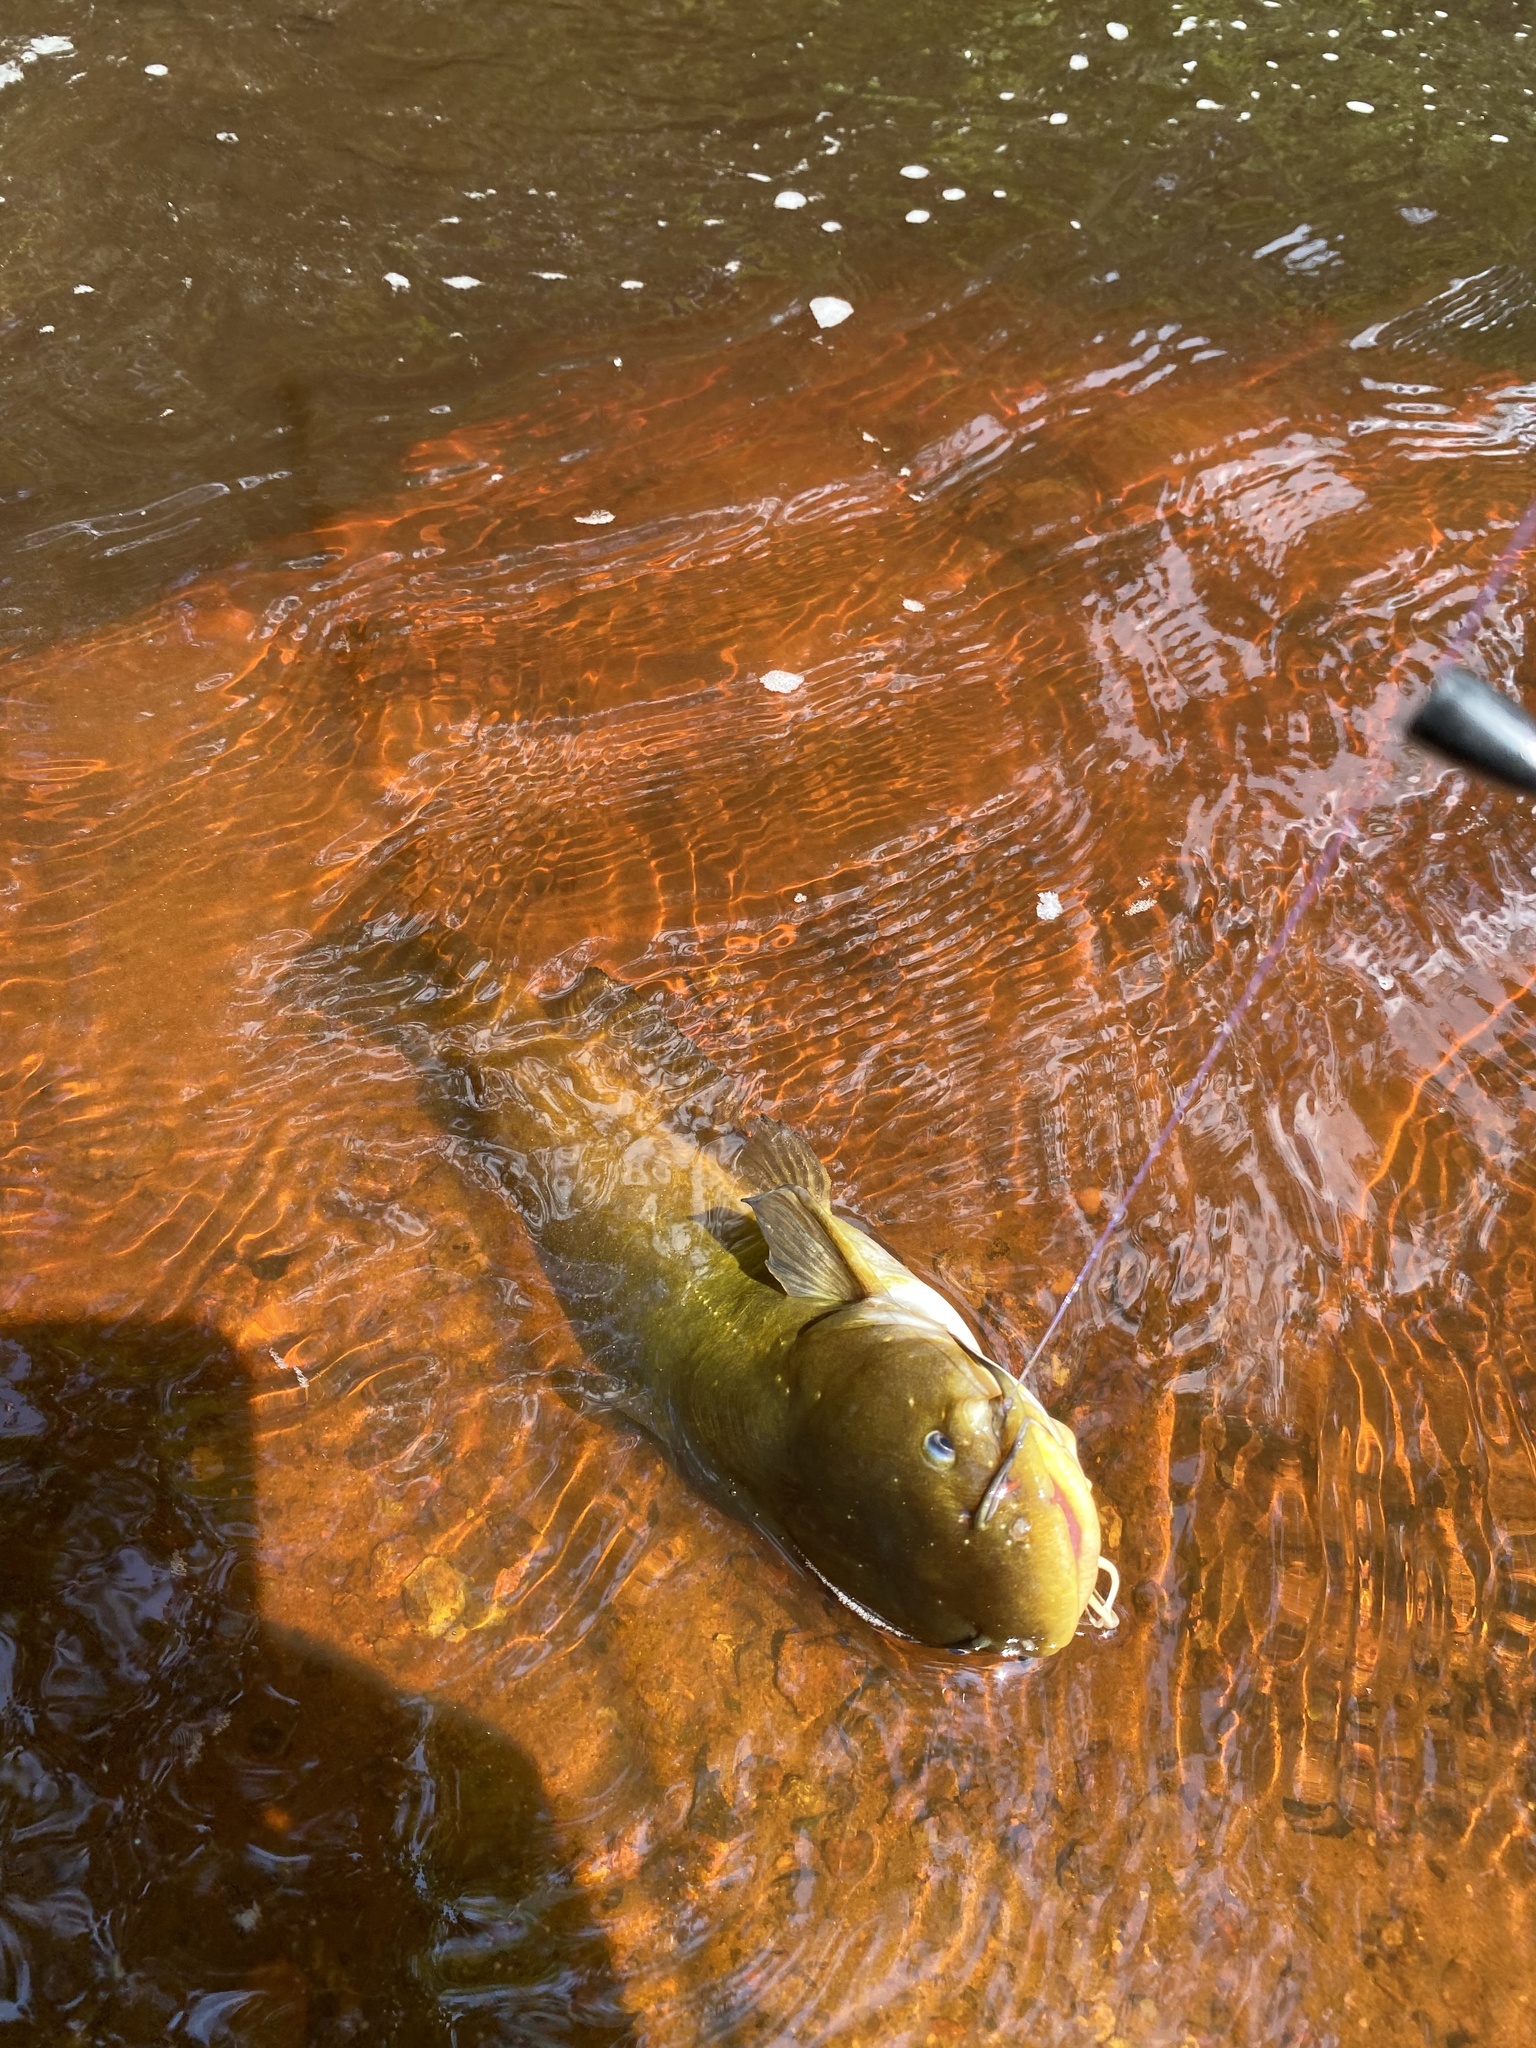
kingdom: Animalia
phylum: Chordata
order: Siluriformes
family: Ictaluridae
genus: Ameiurus
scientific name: Ameiurus natalis
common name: Yellow bullhead
